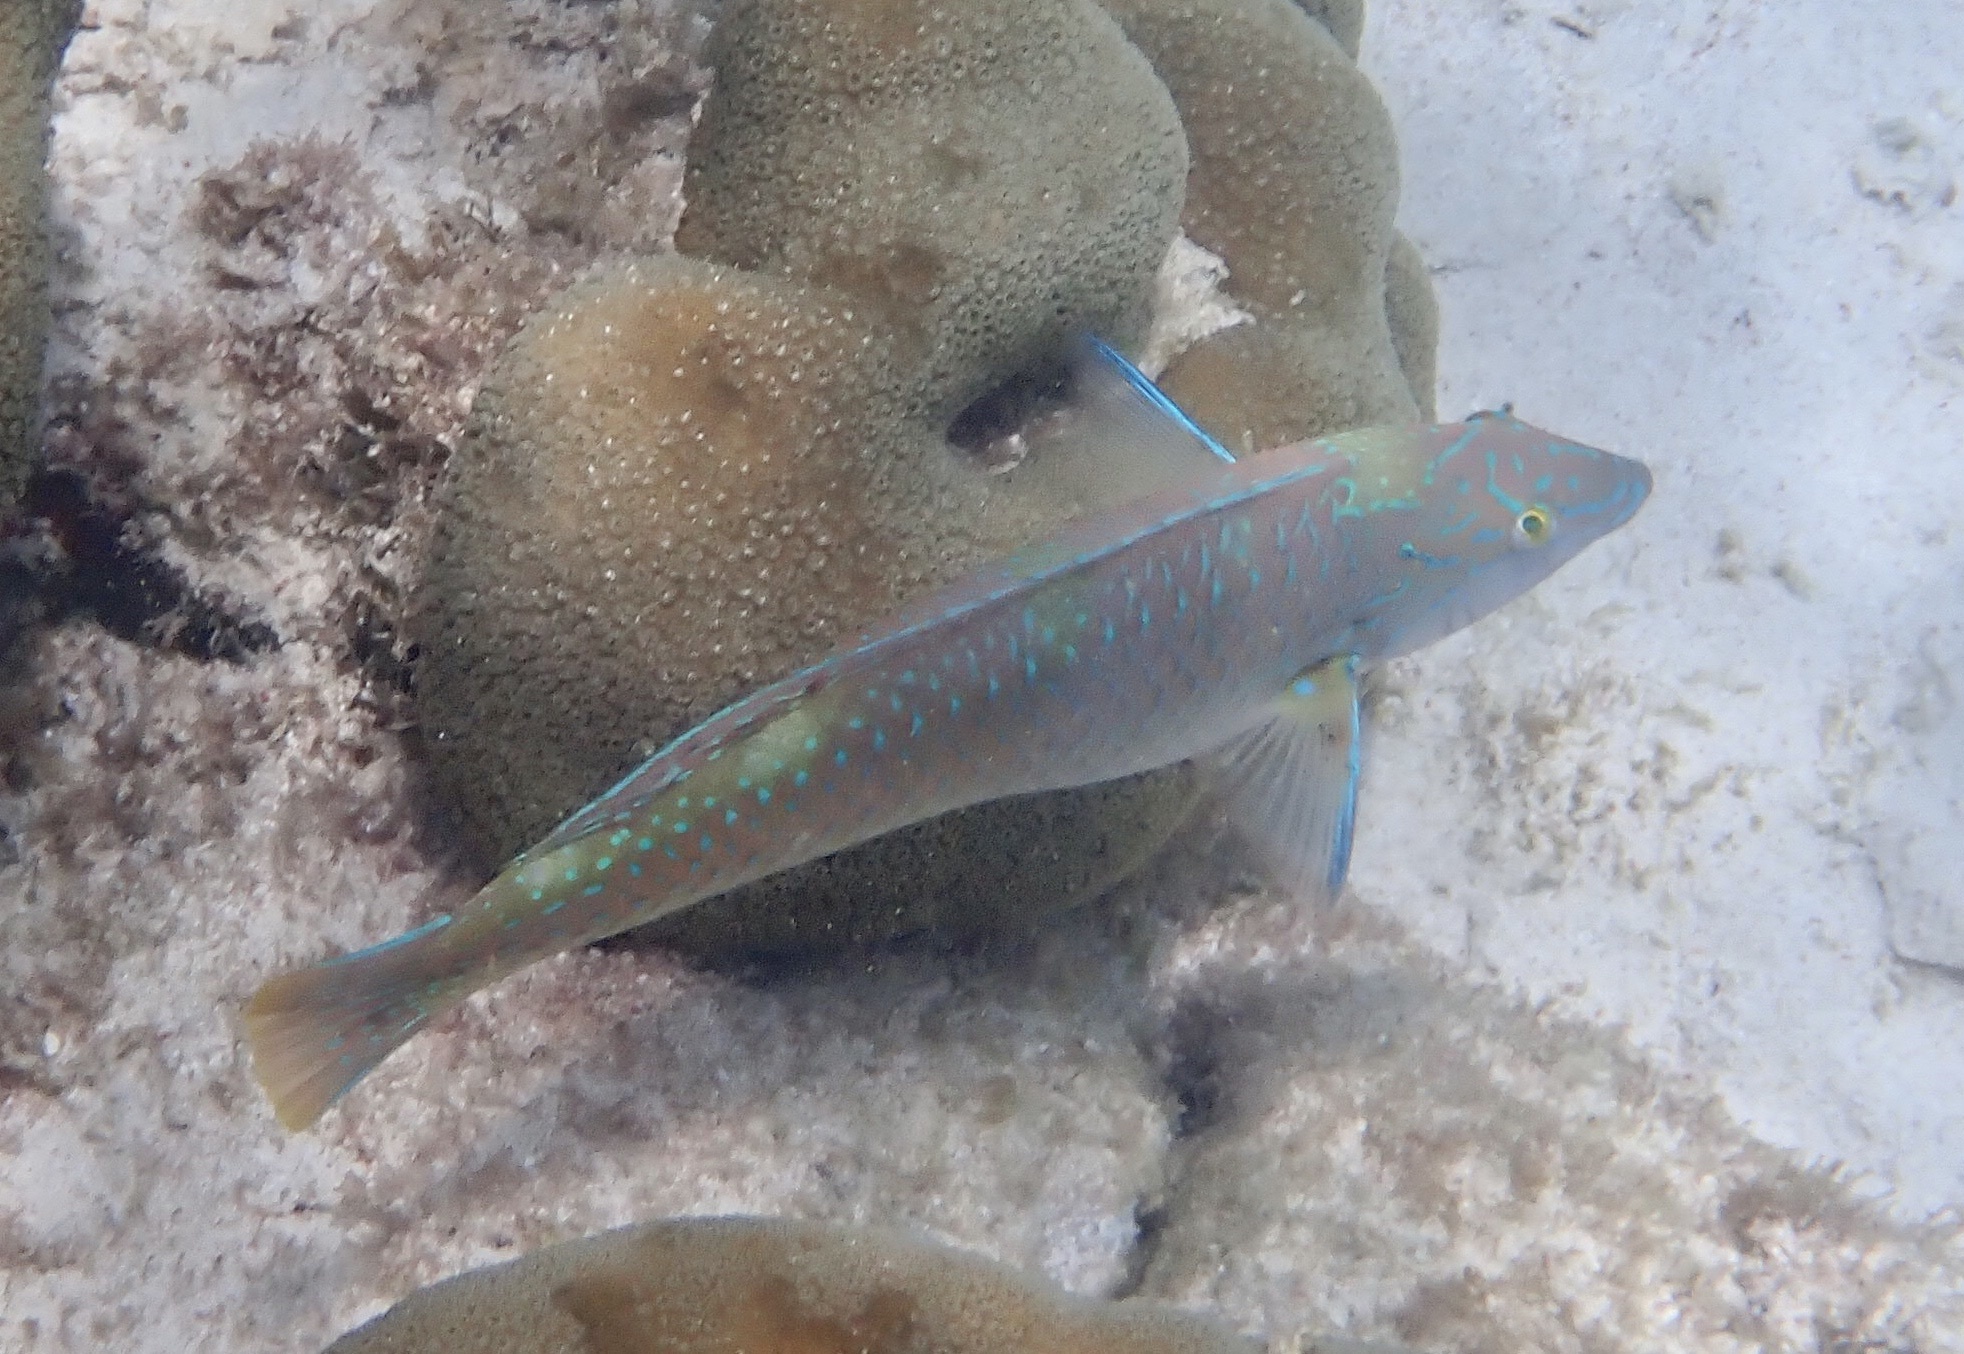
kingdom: Animalia
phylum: Chordata
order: Perciformes
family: Labridae
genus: Halichoeres
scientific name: Halichoeres radiatus
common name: Puddingwife
